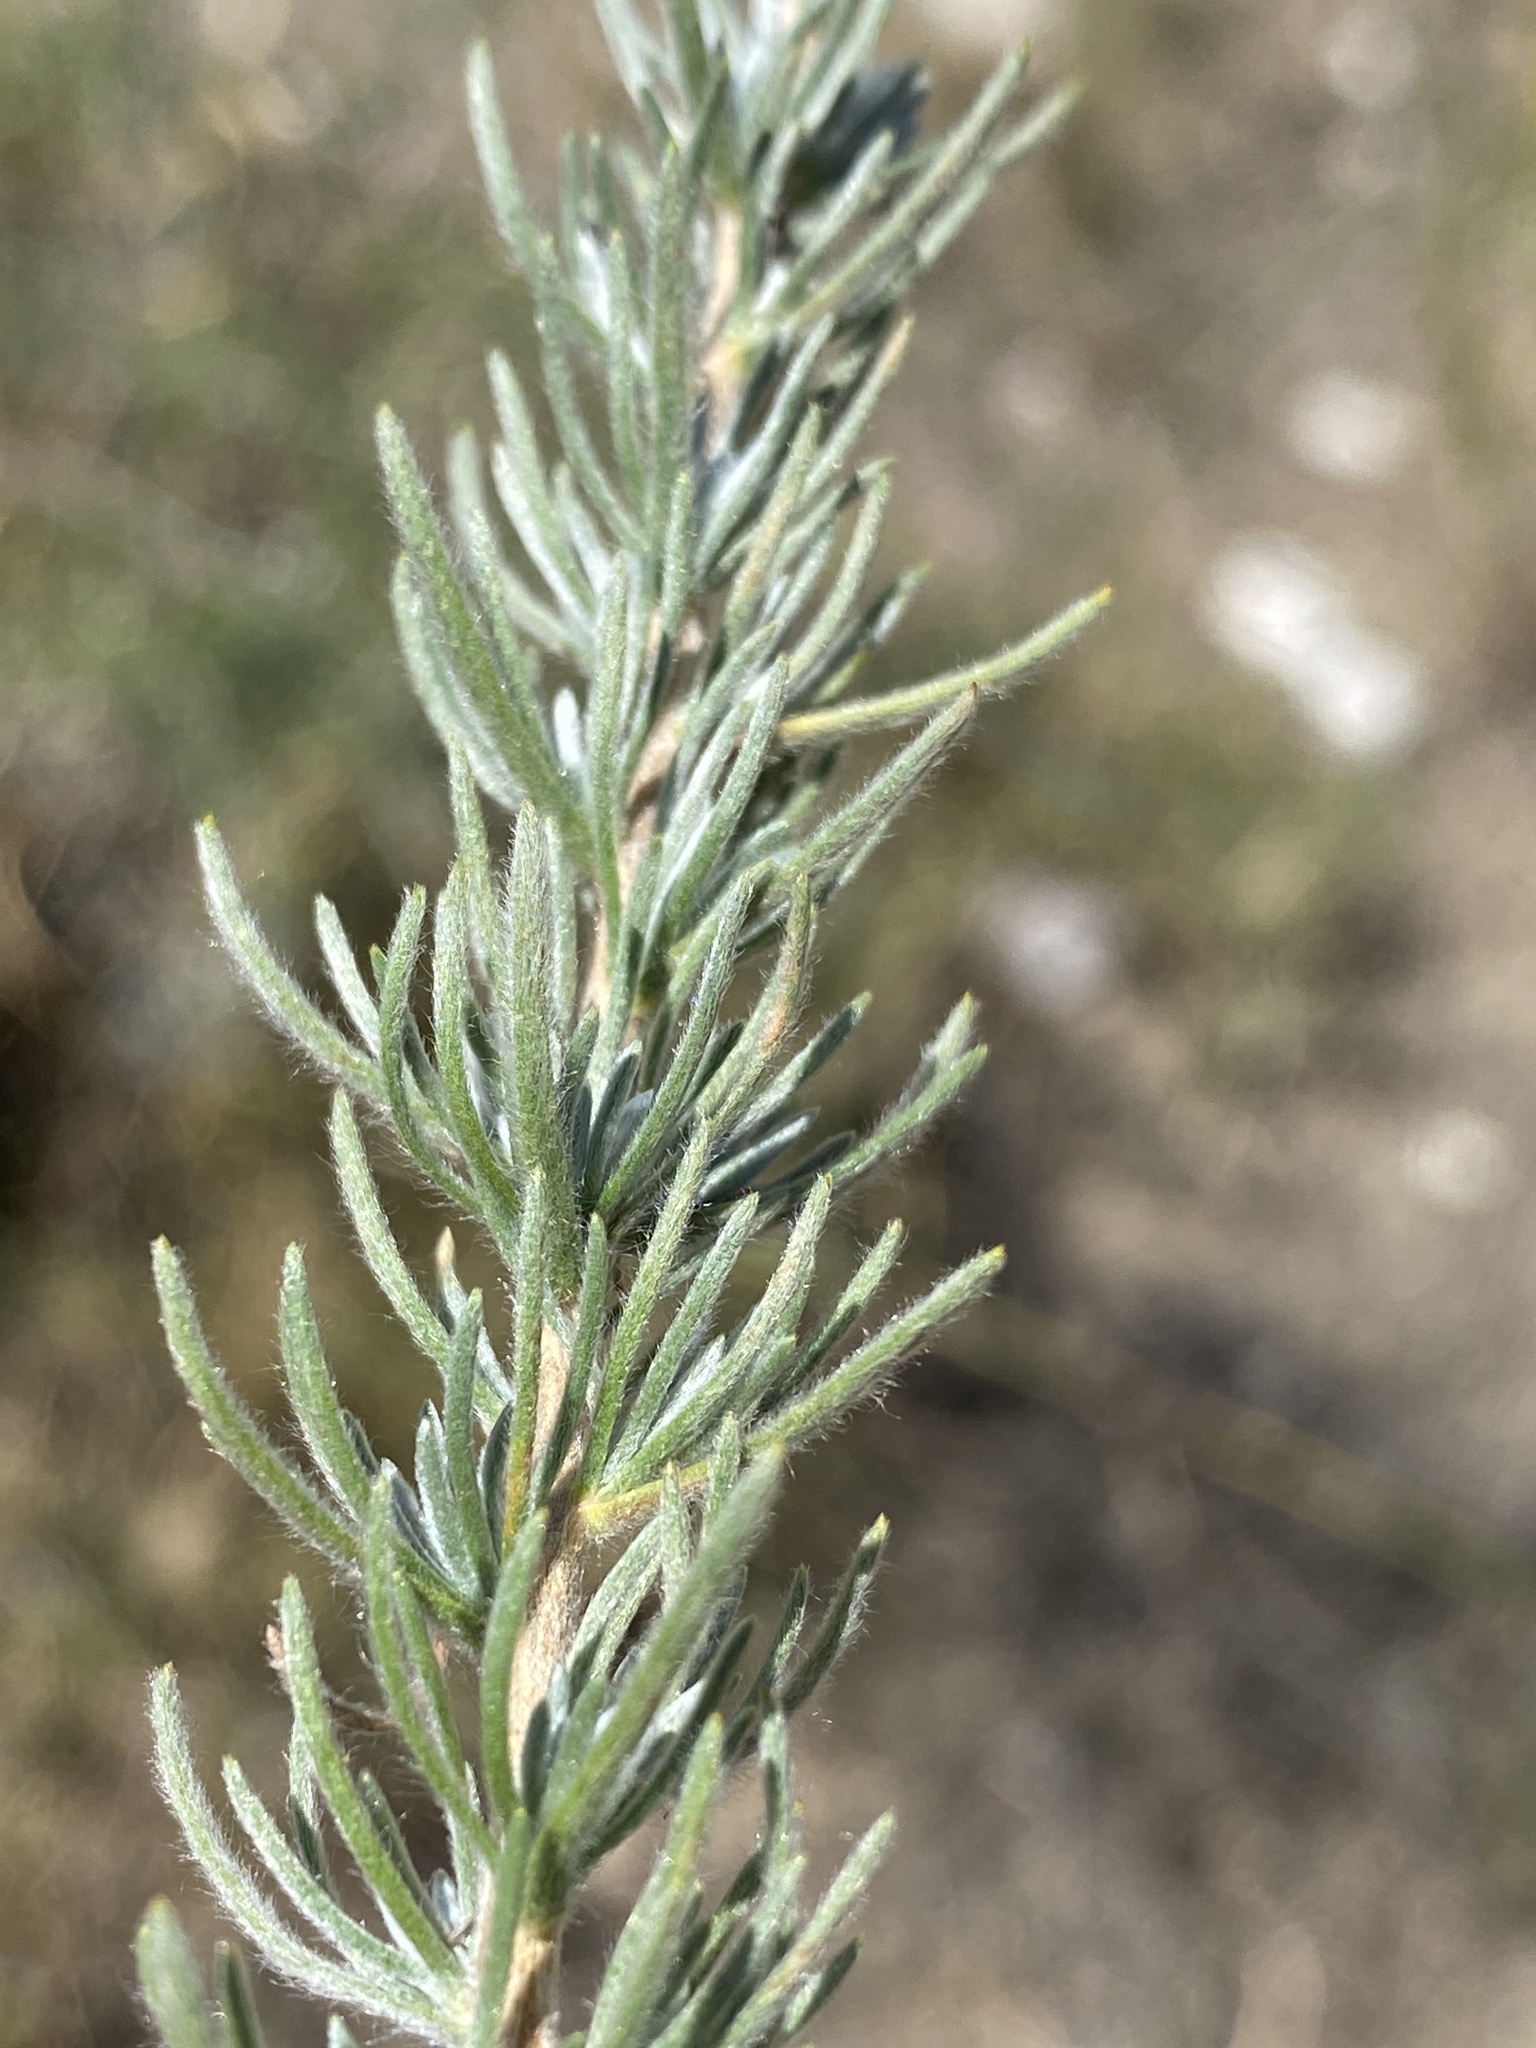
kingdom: Plantae
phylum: Tracheophyta
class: Magnoliopsida
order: Asterales
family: Asteraceae
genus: Eriocephalus
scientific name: Eriocephalus microphyllus
